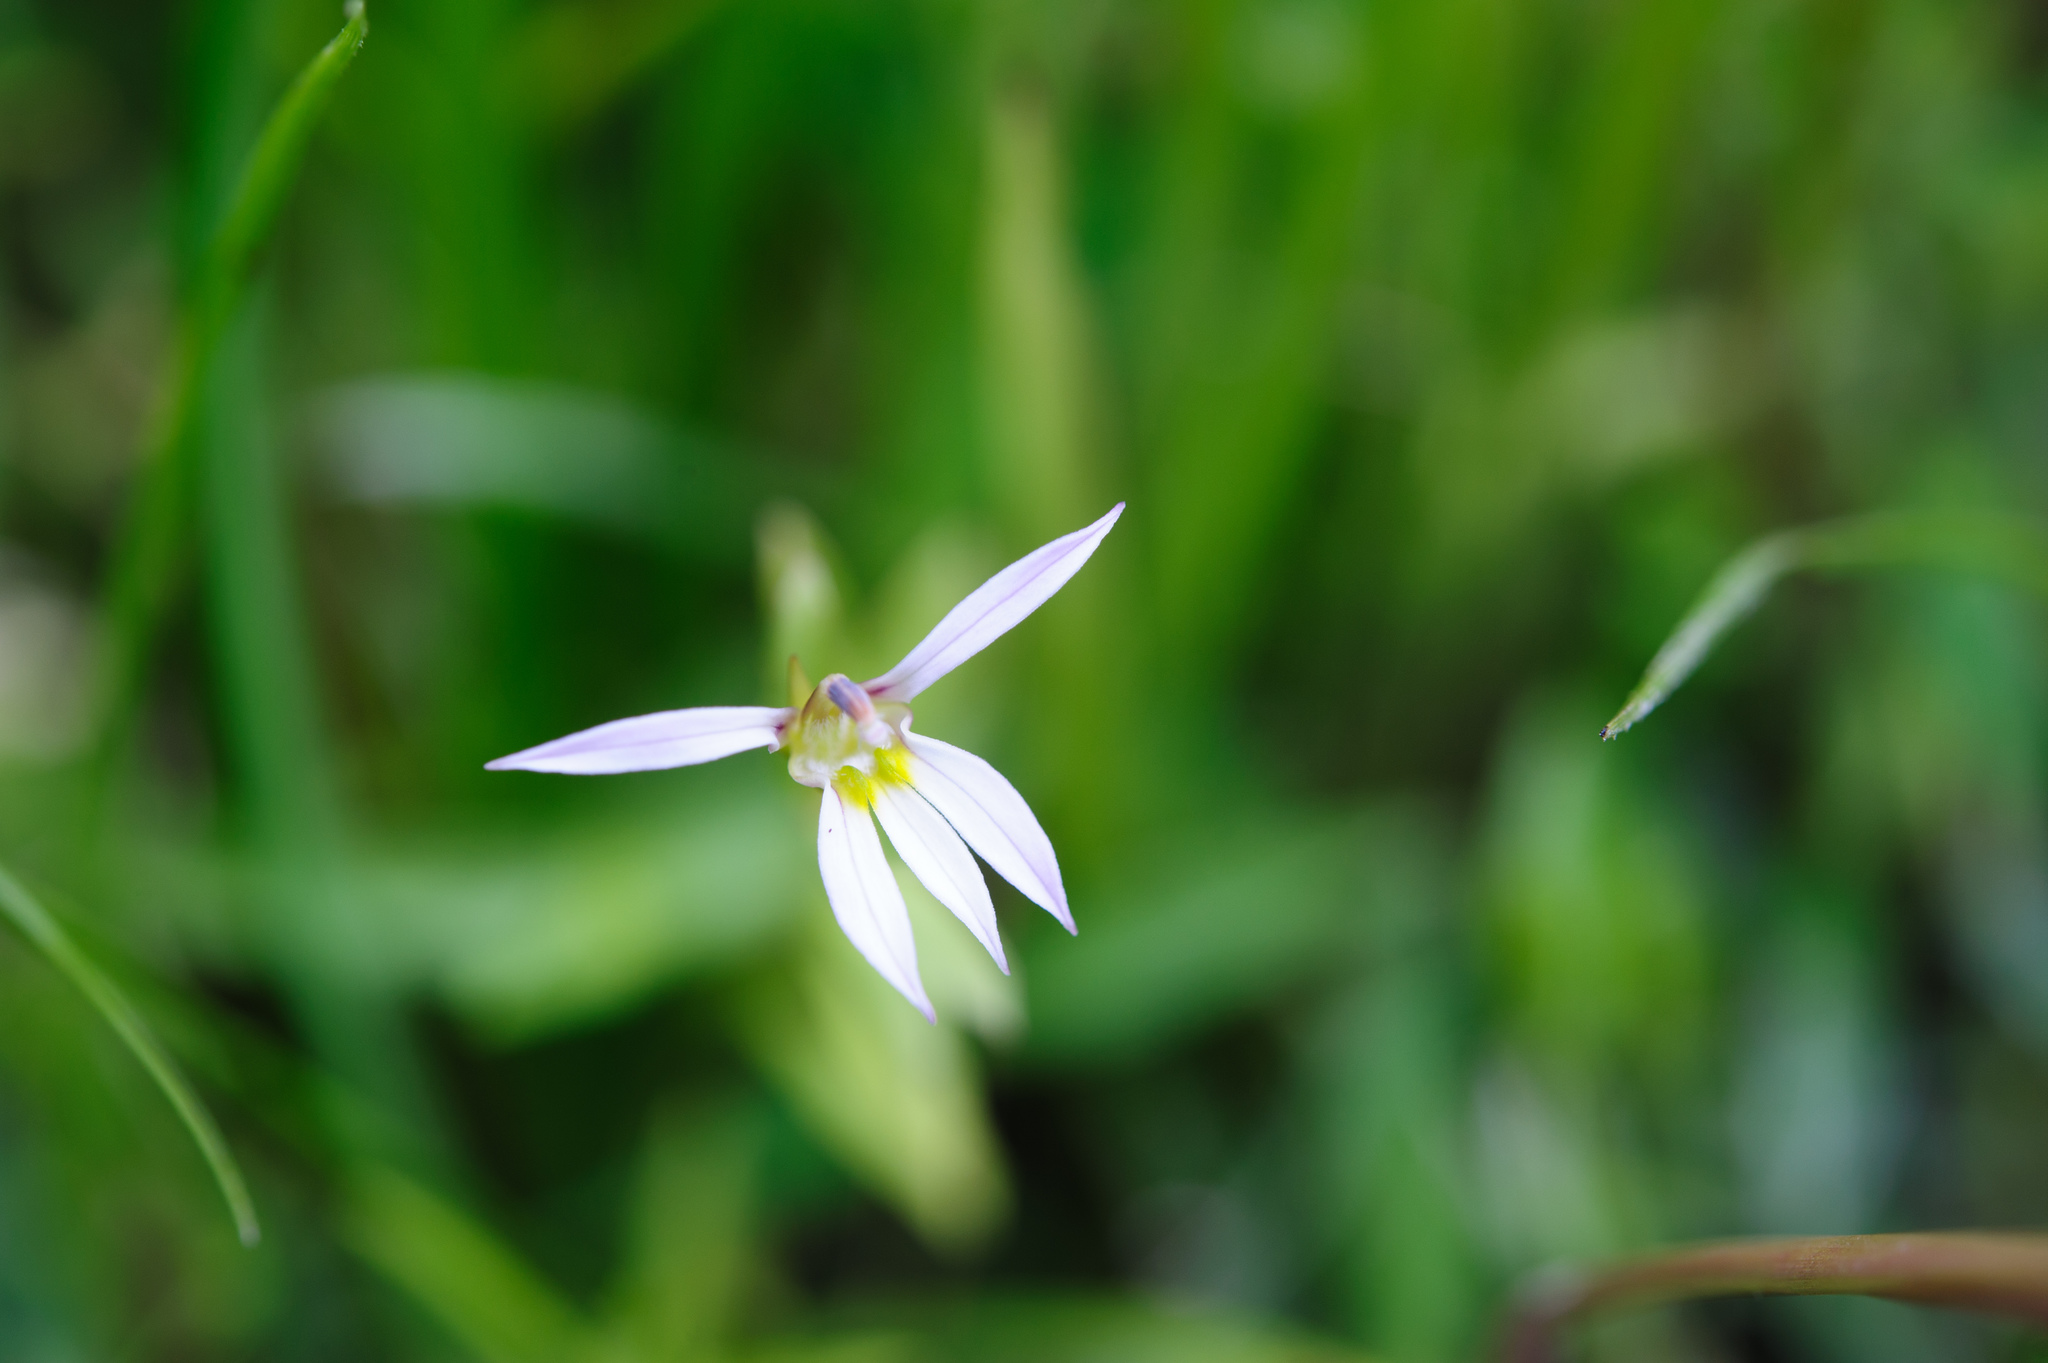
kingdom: Plantae
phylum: Tracheophyta
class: Magnoliopsida
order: Asterales
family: Campanulaceae
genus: Lobelia
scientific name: Lobelia chinensis
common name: Chinese lobelia
